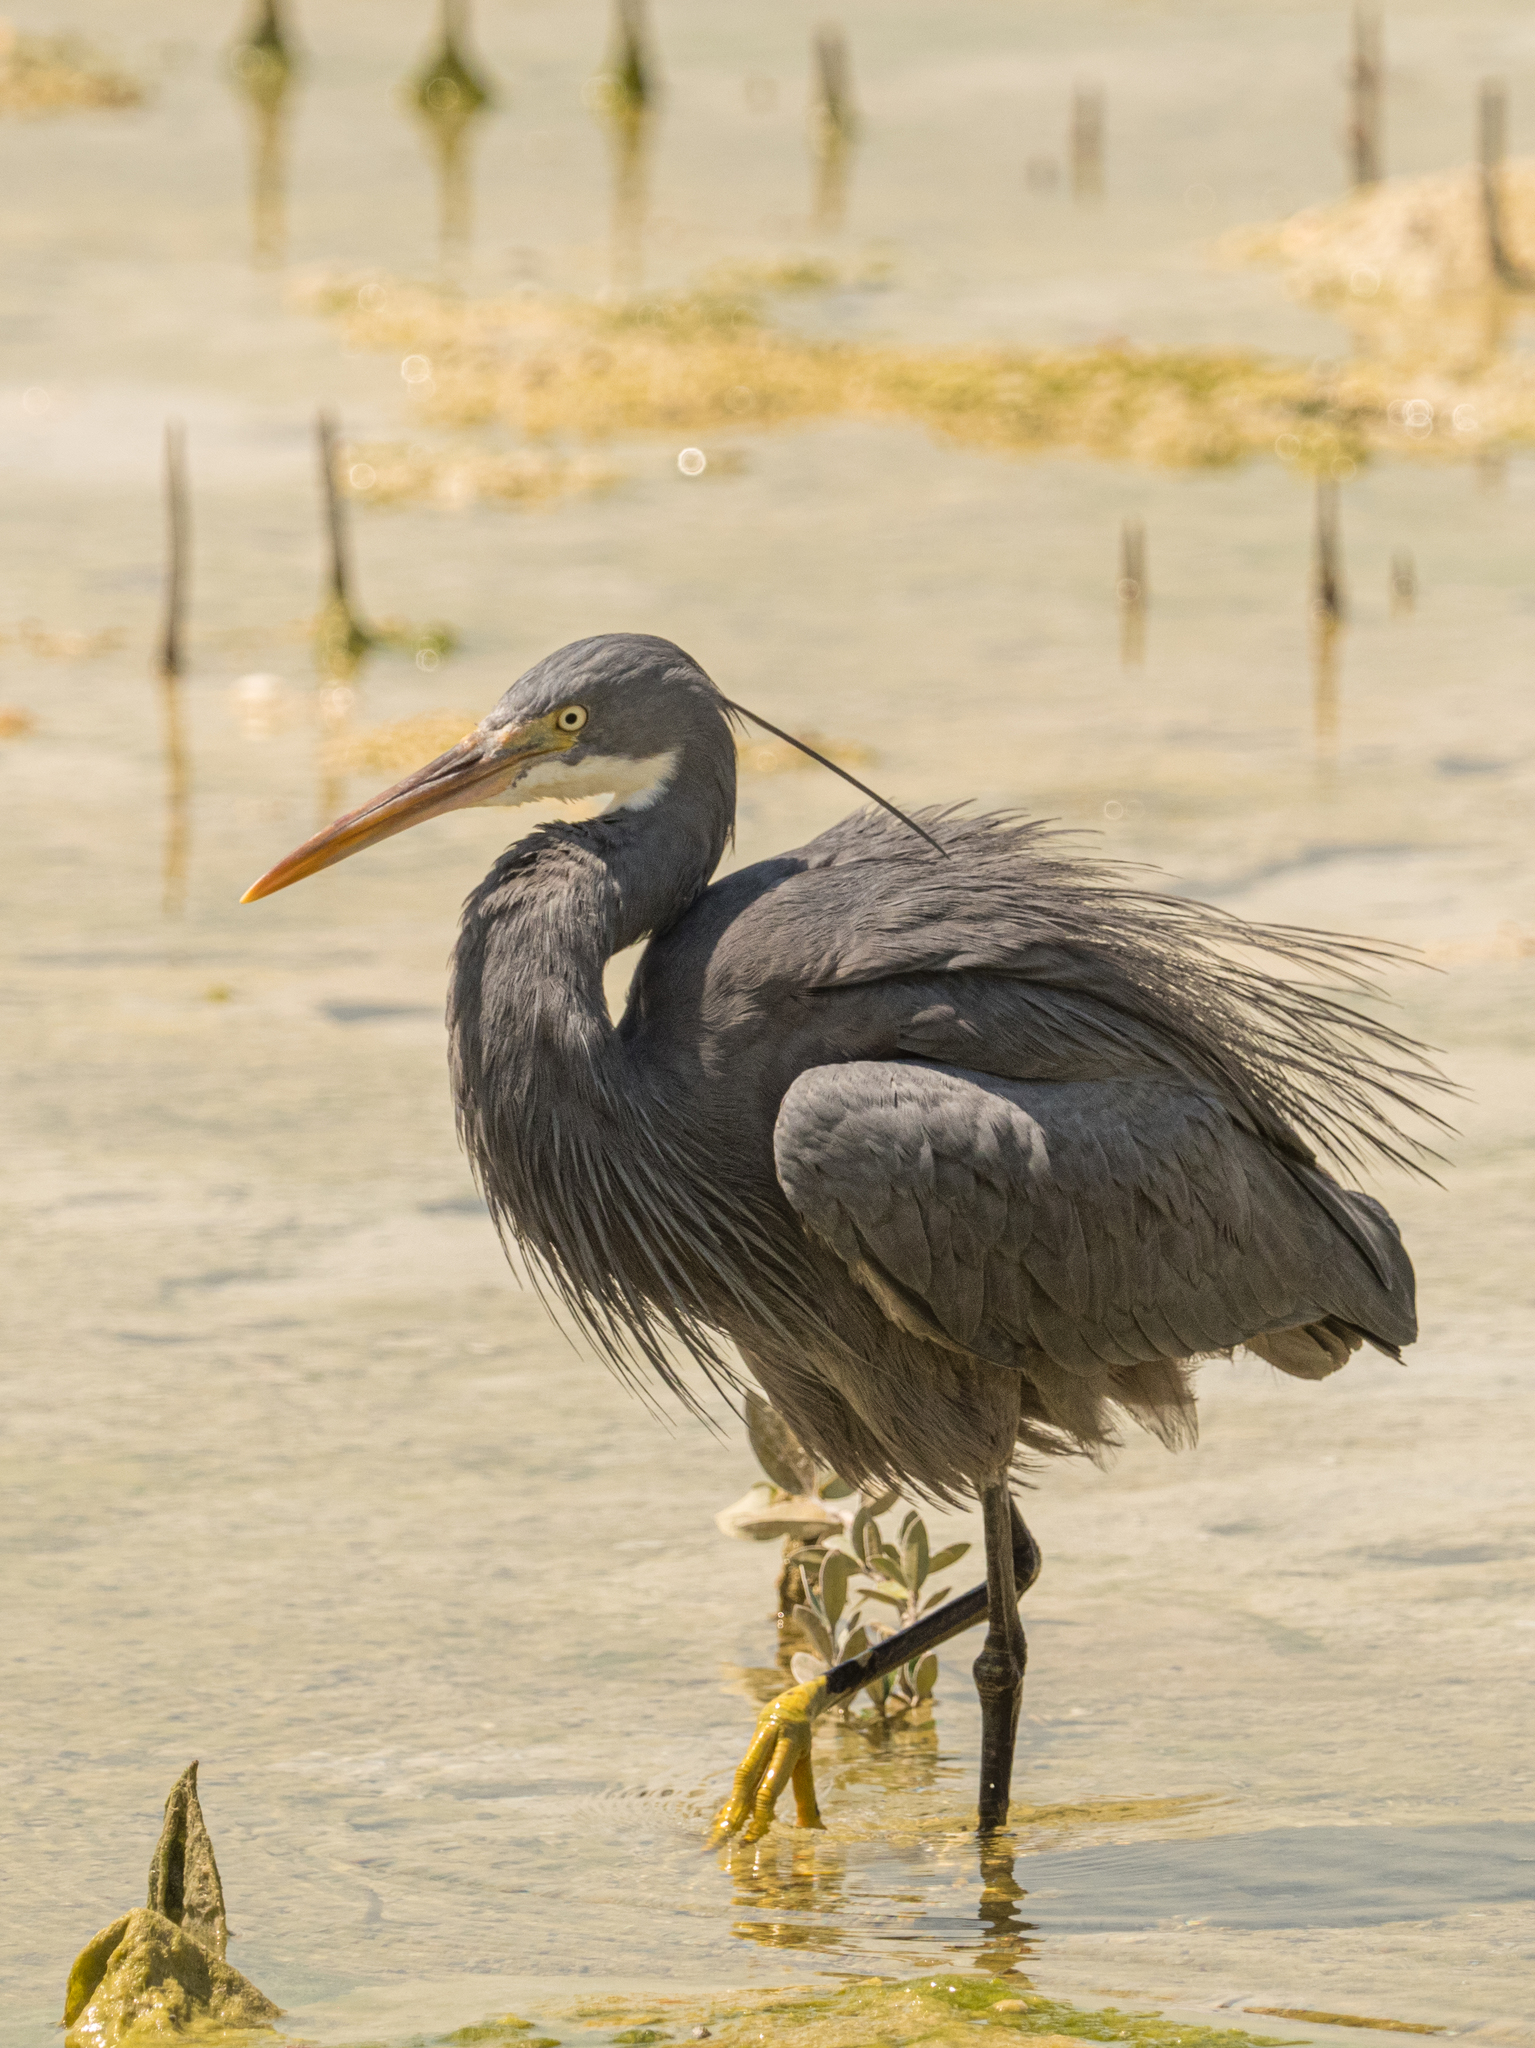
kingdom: Animalia
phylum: Chordata
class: Aves
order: Pelecaniformes
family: Ardeidae
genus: Egretta
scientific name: Egretta gularis
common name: Western reef-heron
